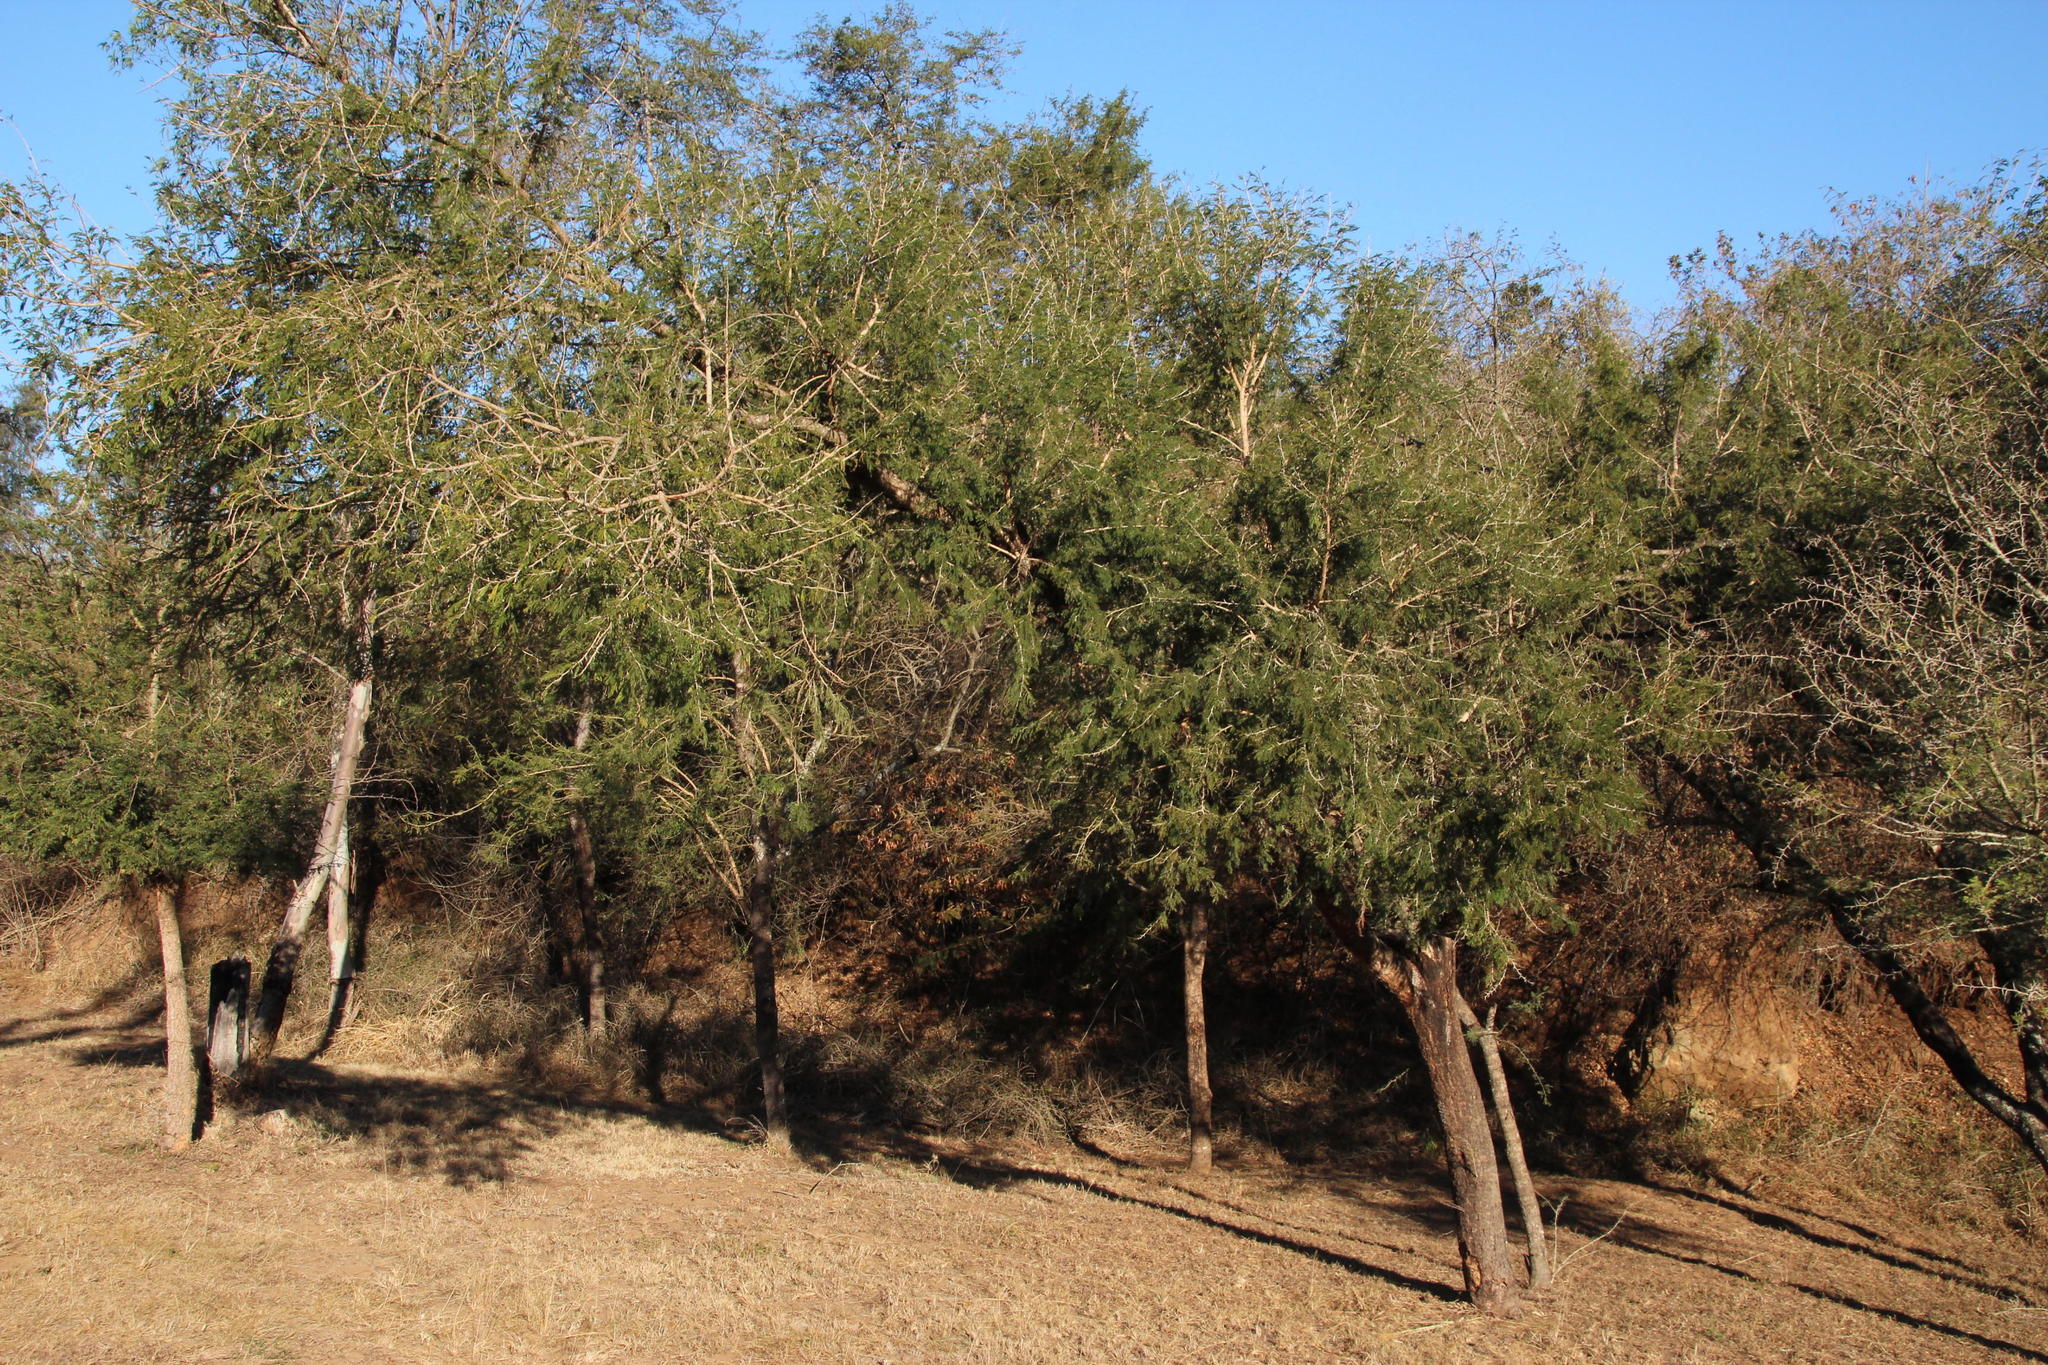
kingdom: Plantae
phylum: Tracheophyta
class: Magnoliopsida
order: Fabales
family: Fabaceae
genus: Vachellia
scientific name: Vachellia natalitia
